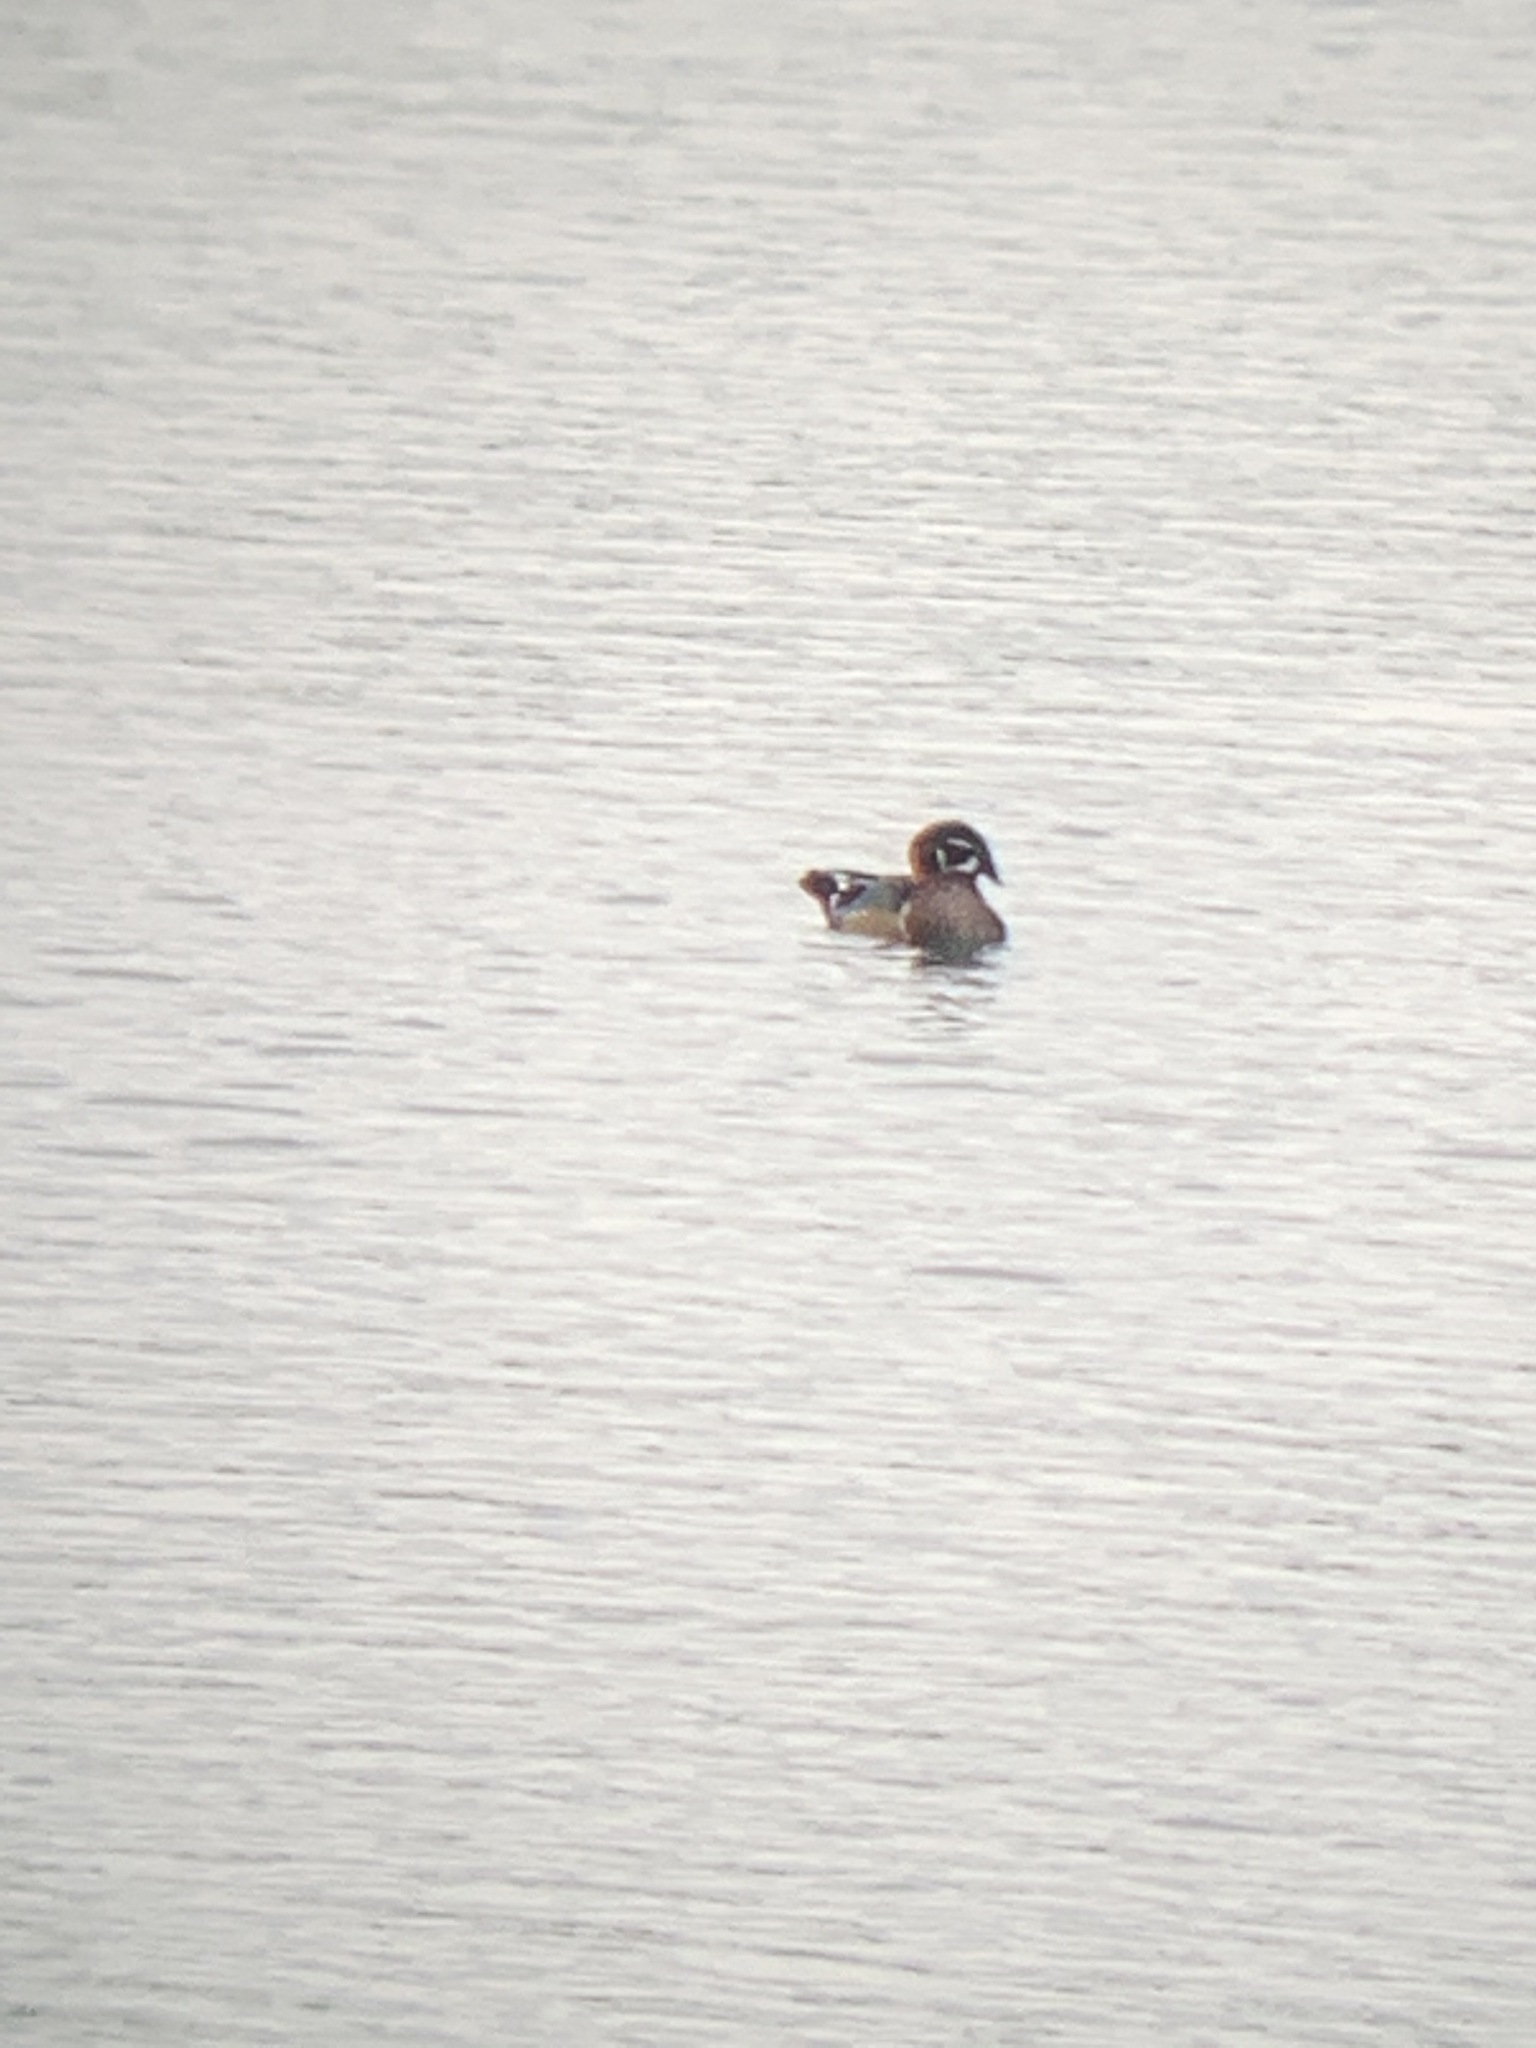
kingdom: Animalia
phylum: Chordata
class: Aves
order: Anseriformes
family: Anatidae
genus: Aix
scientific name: Aix sponsa
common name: Wood duck
